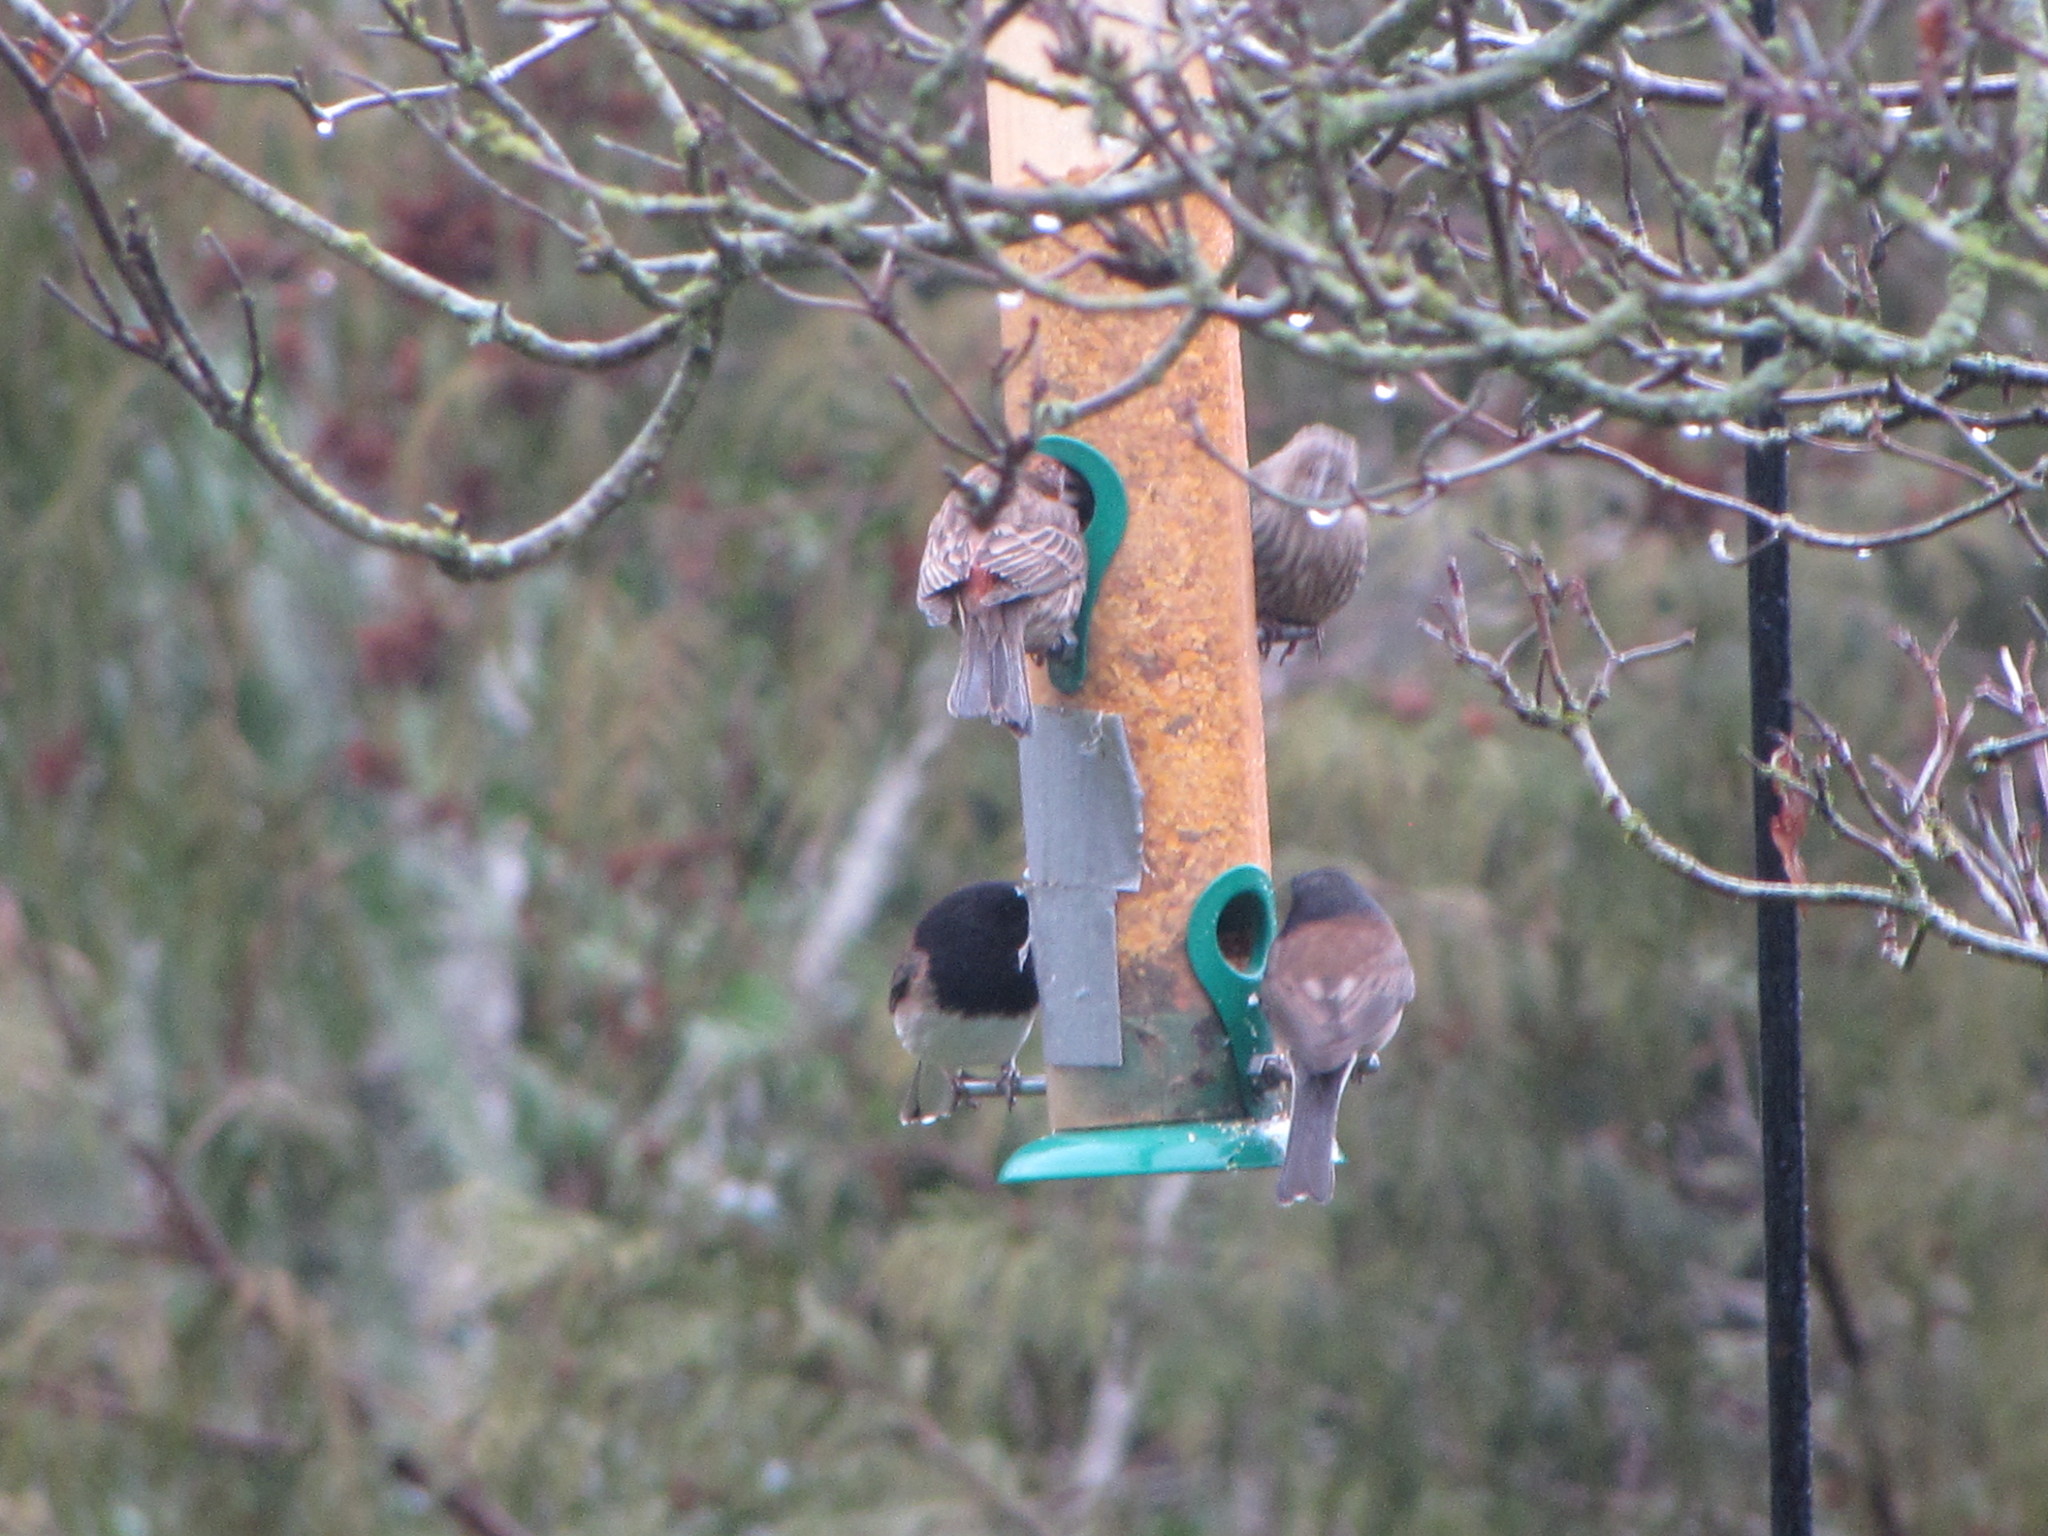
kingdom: Animalia
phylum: Chordata
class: Aves
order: Passeriformes
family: Passerellidae
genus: Junco
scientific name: Junco hyemalis
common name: Dark-eyed junco
